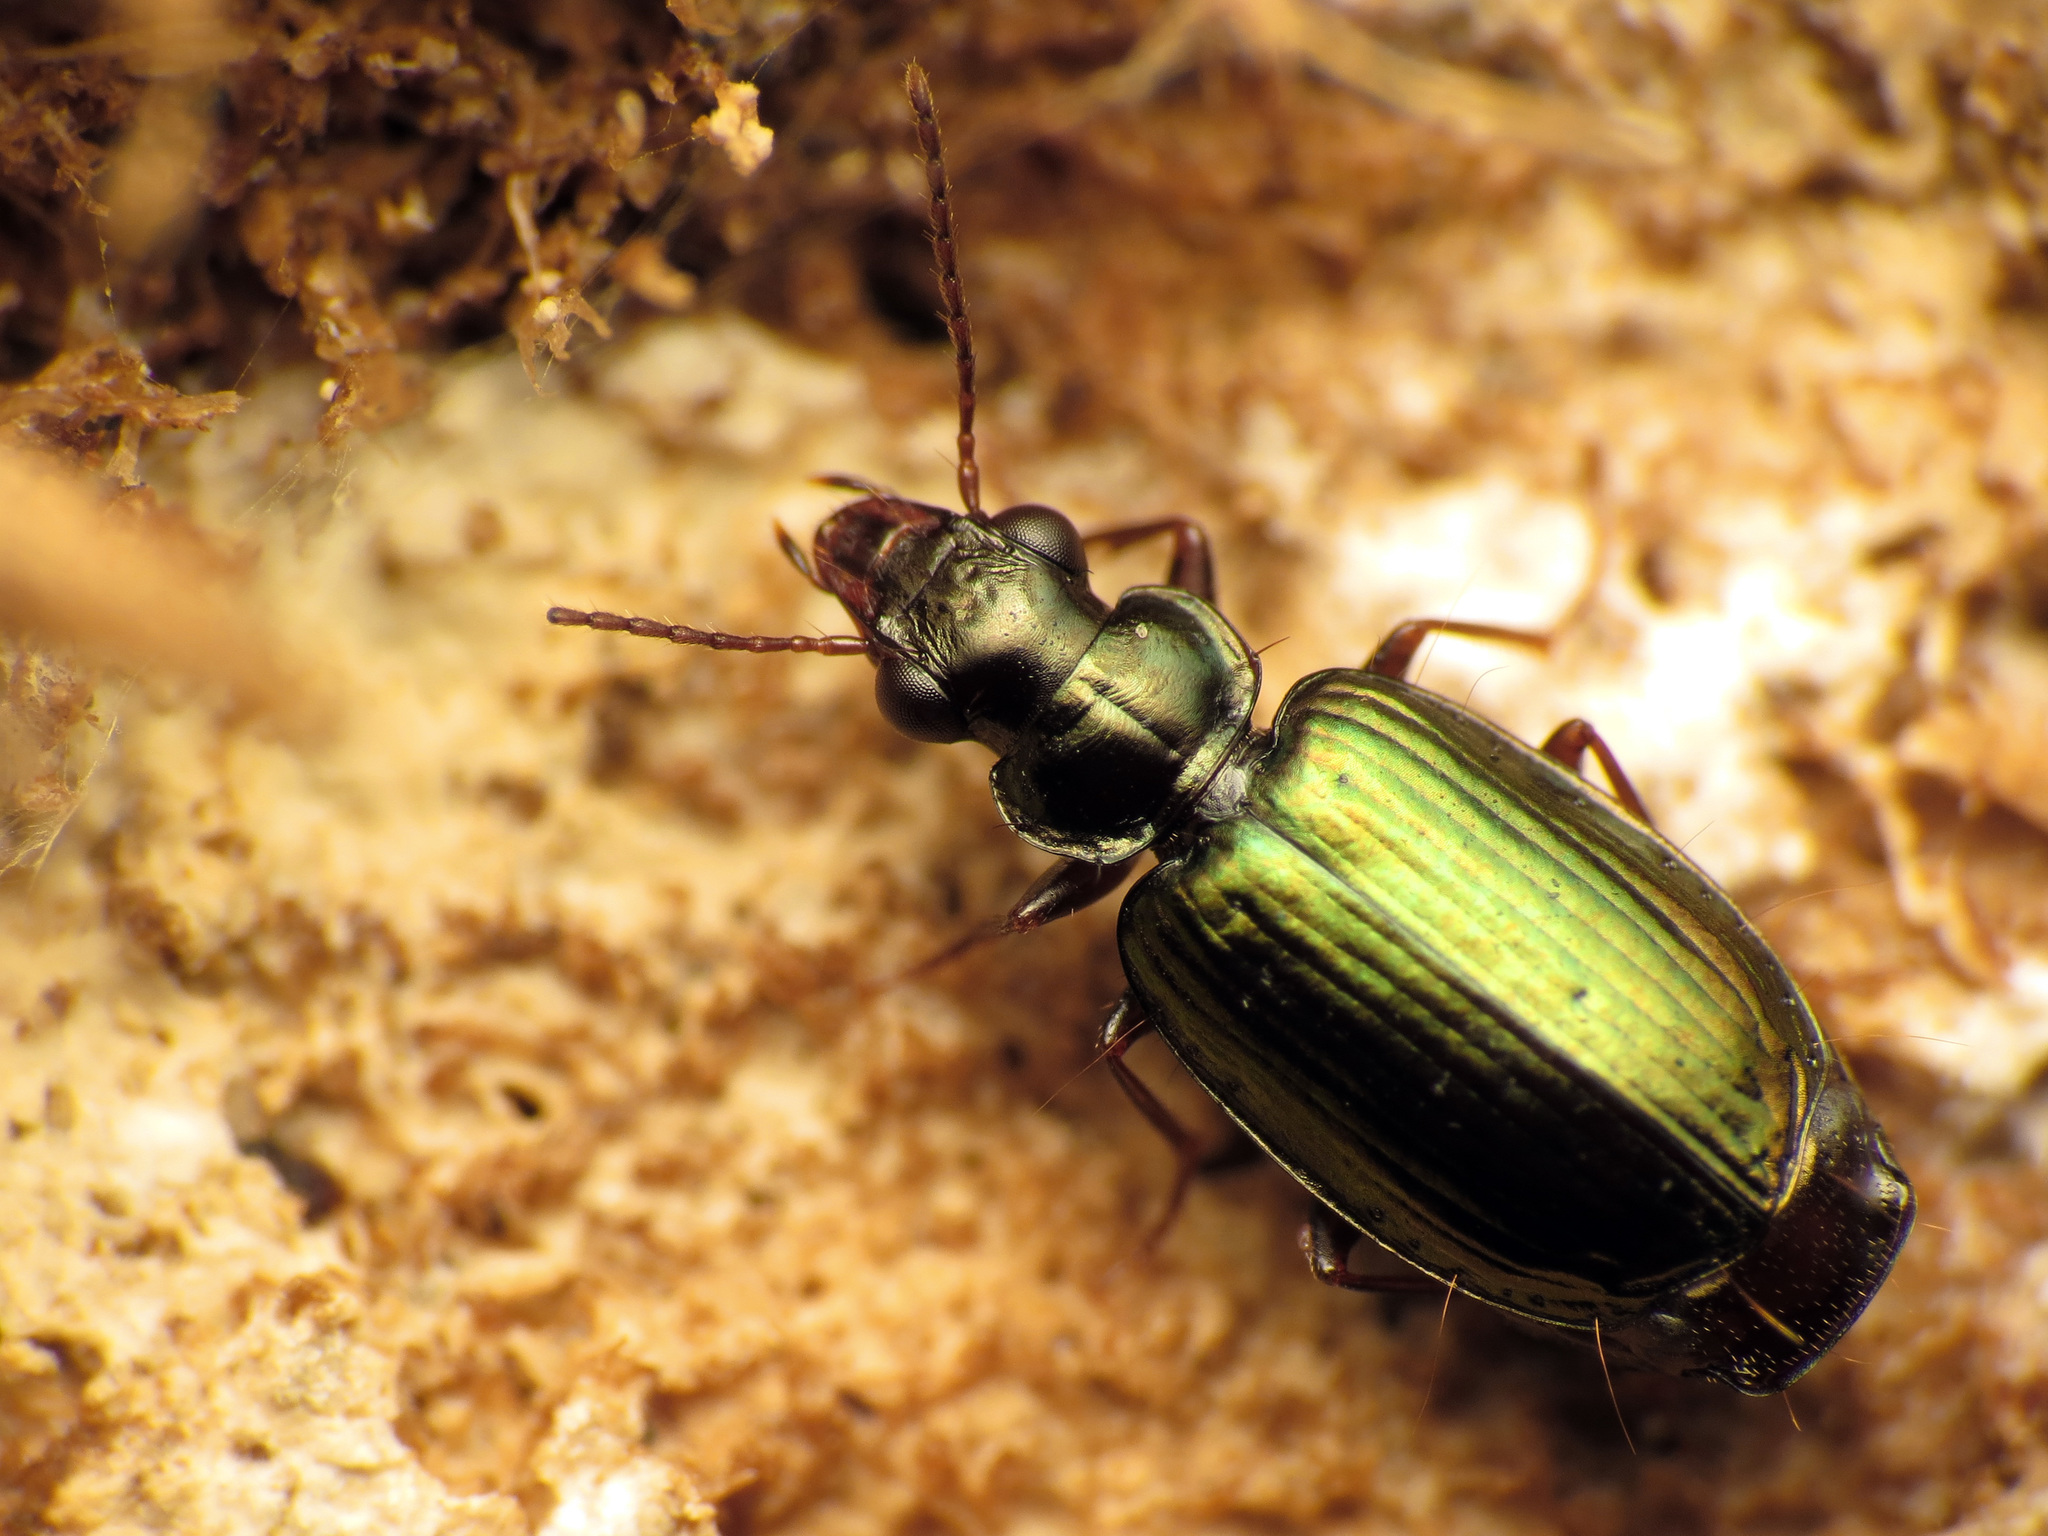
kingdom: Animalia
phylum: Arthropoda
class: Insecta
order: Coleoptera
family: Carabidae
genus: Coptodera
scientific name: Coptodera aerata
